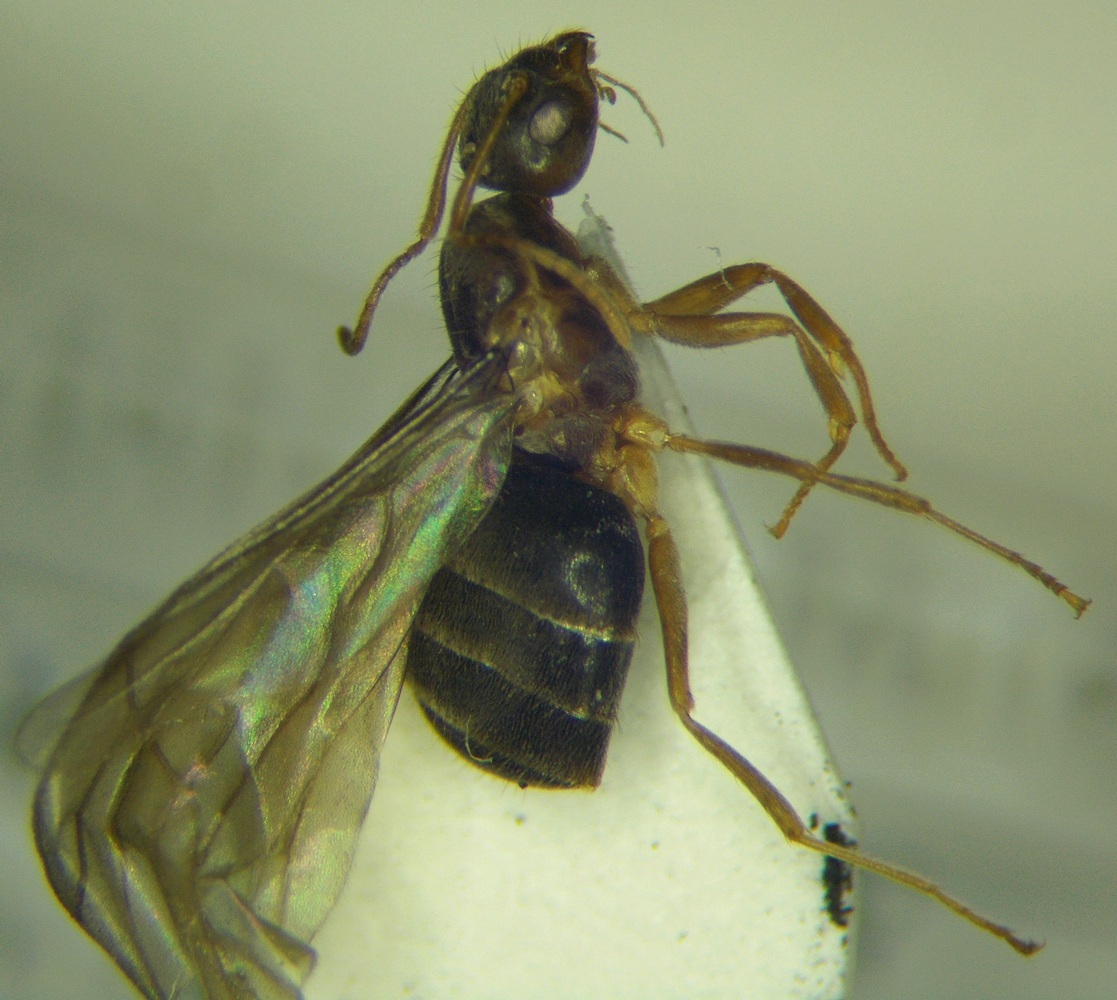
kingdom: Animalia
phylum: Arthropoda
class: Insecta
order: Hymenoptera
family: Formicidae
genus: Paratrechina
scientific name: Paratrechina jaegerskioeldi
